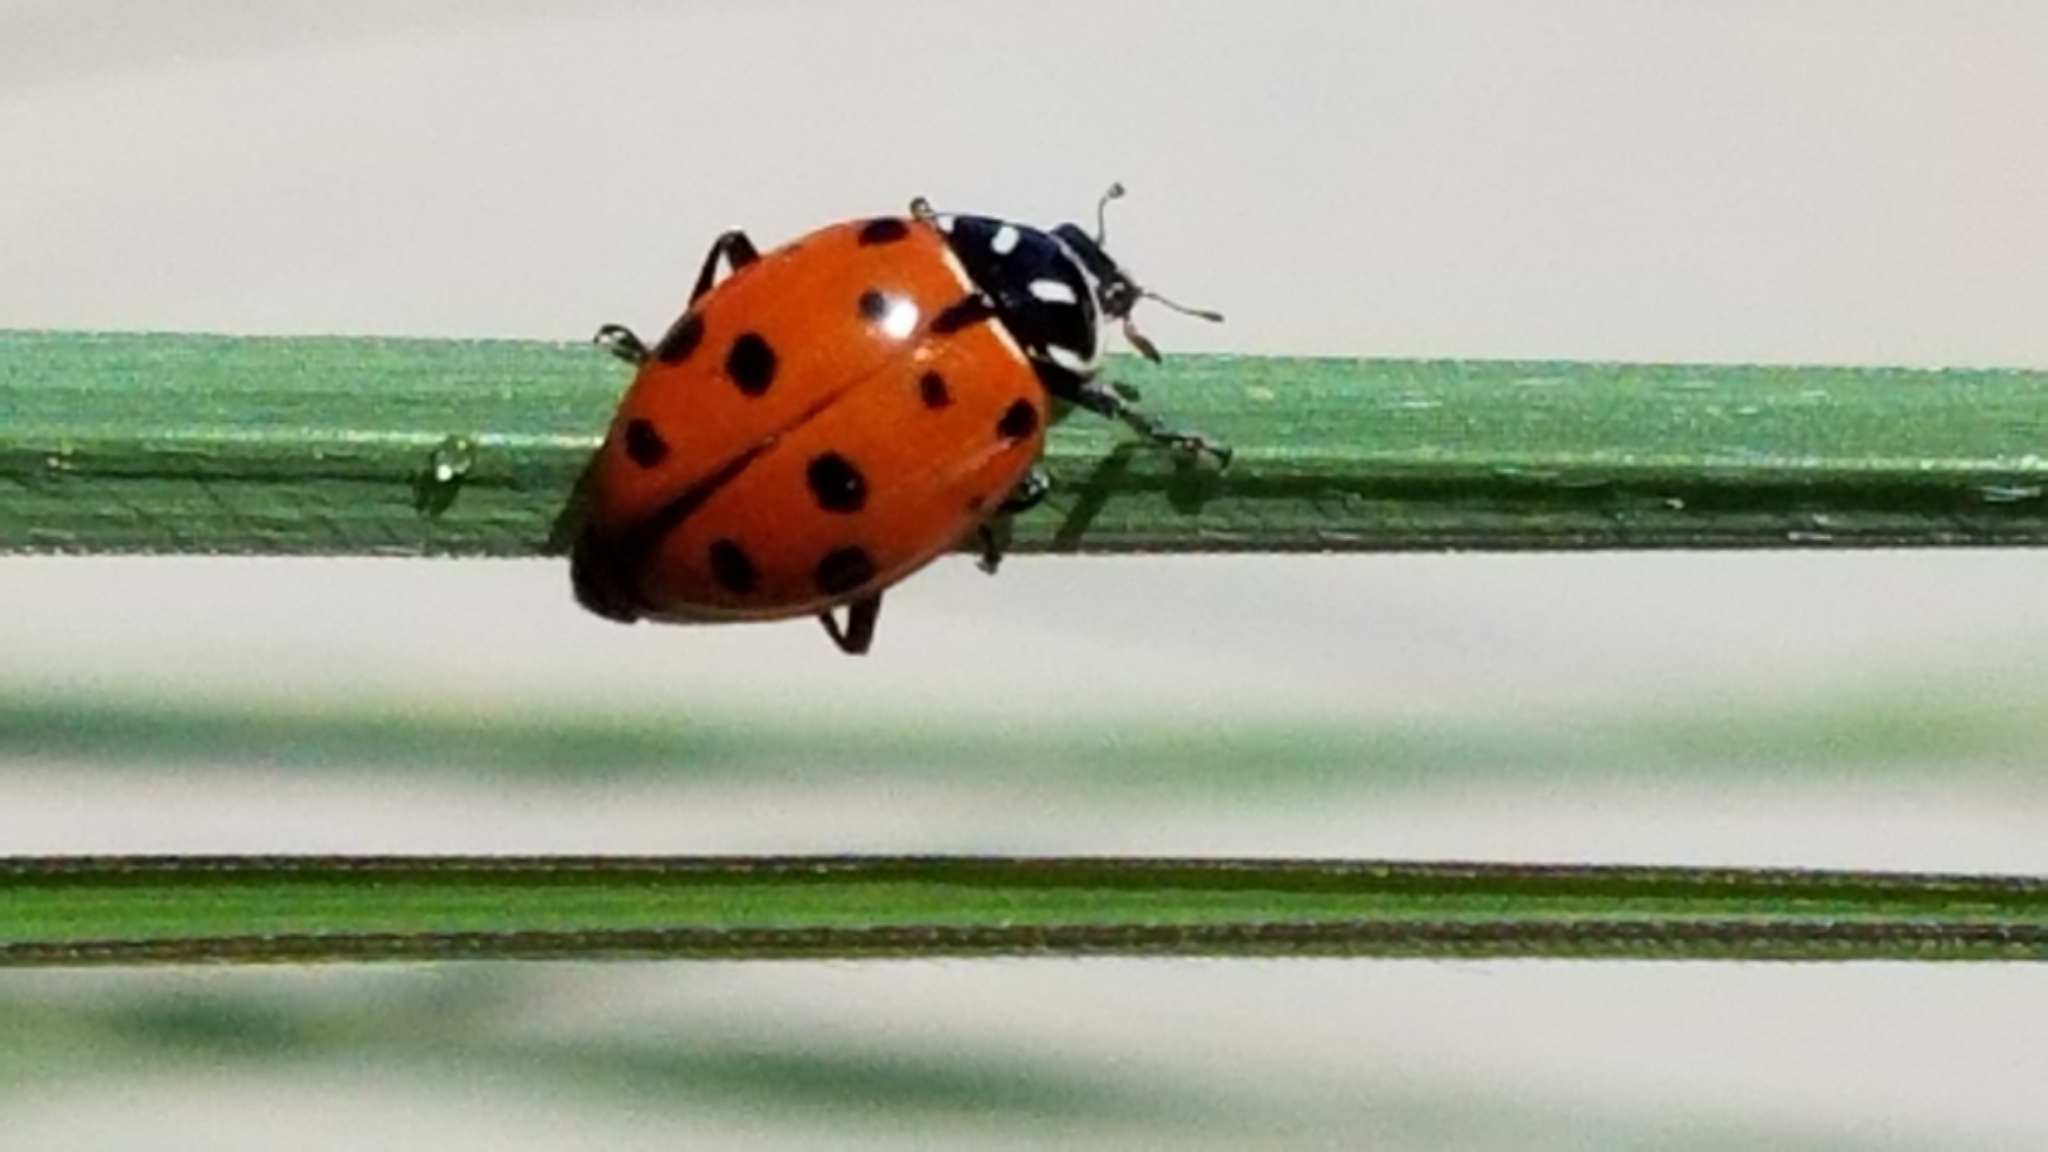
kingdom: Animalia
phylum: Arthropoda
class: Insecta
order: Coleoptera
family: Coccinellidae
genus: Hippodamia
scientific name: Hippodamia convergens
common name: Convergent lady beetle
